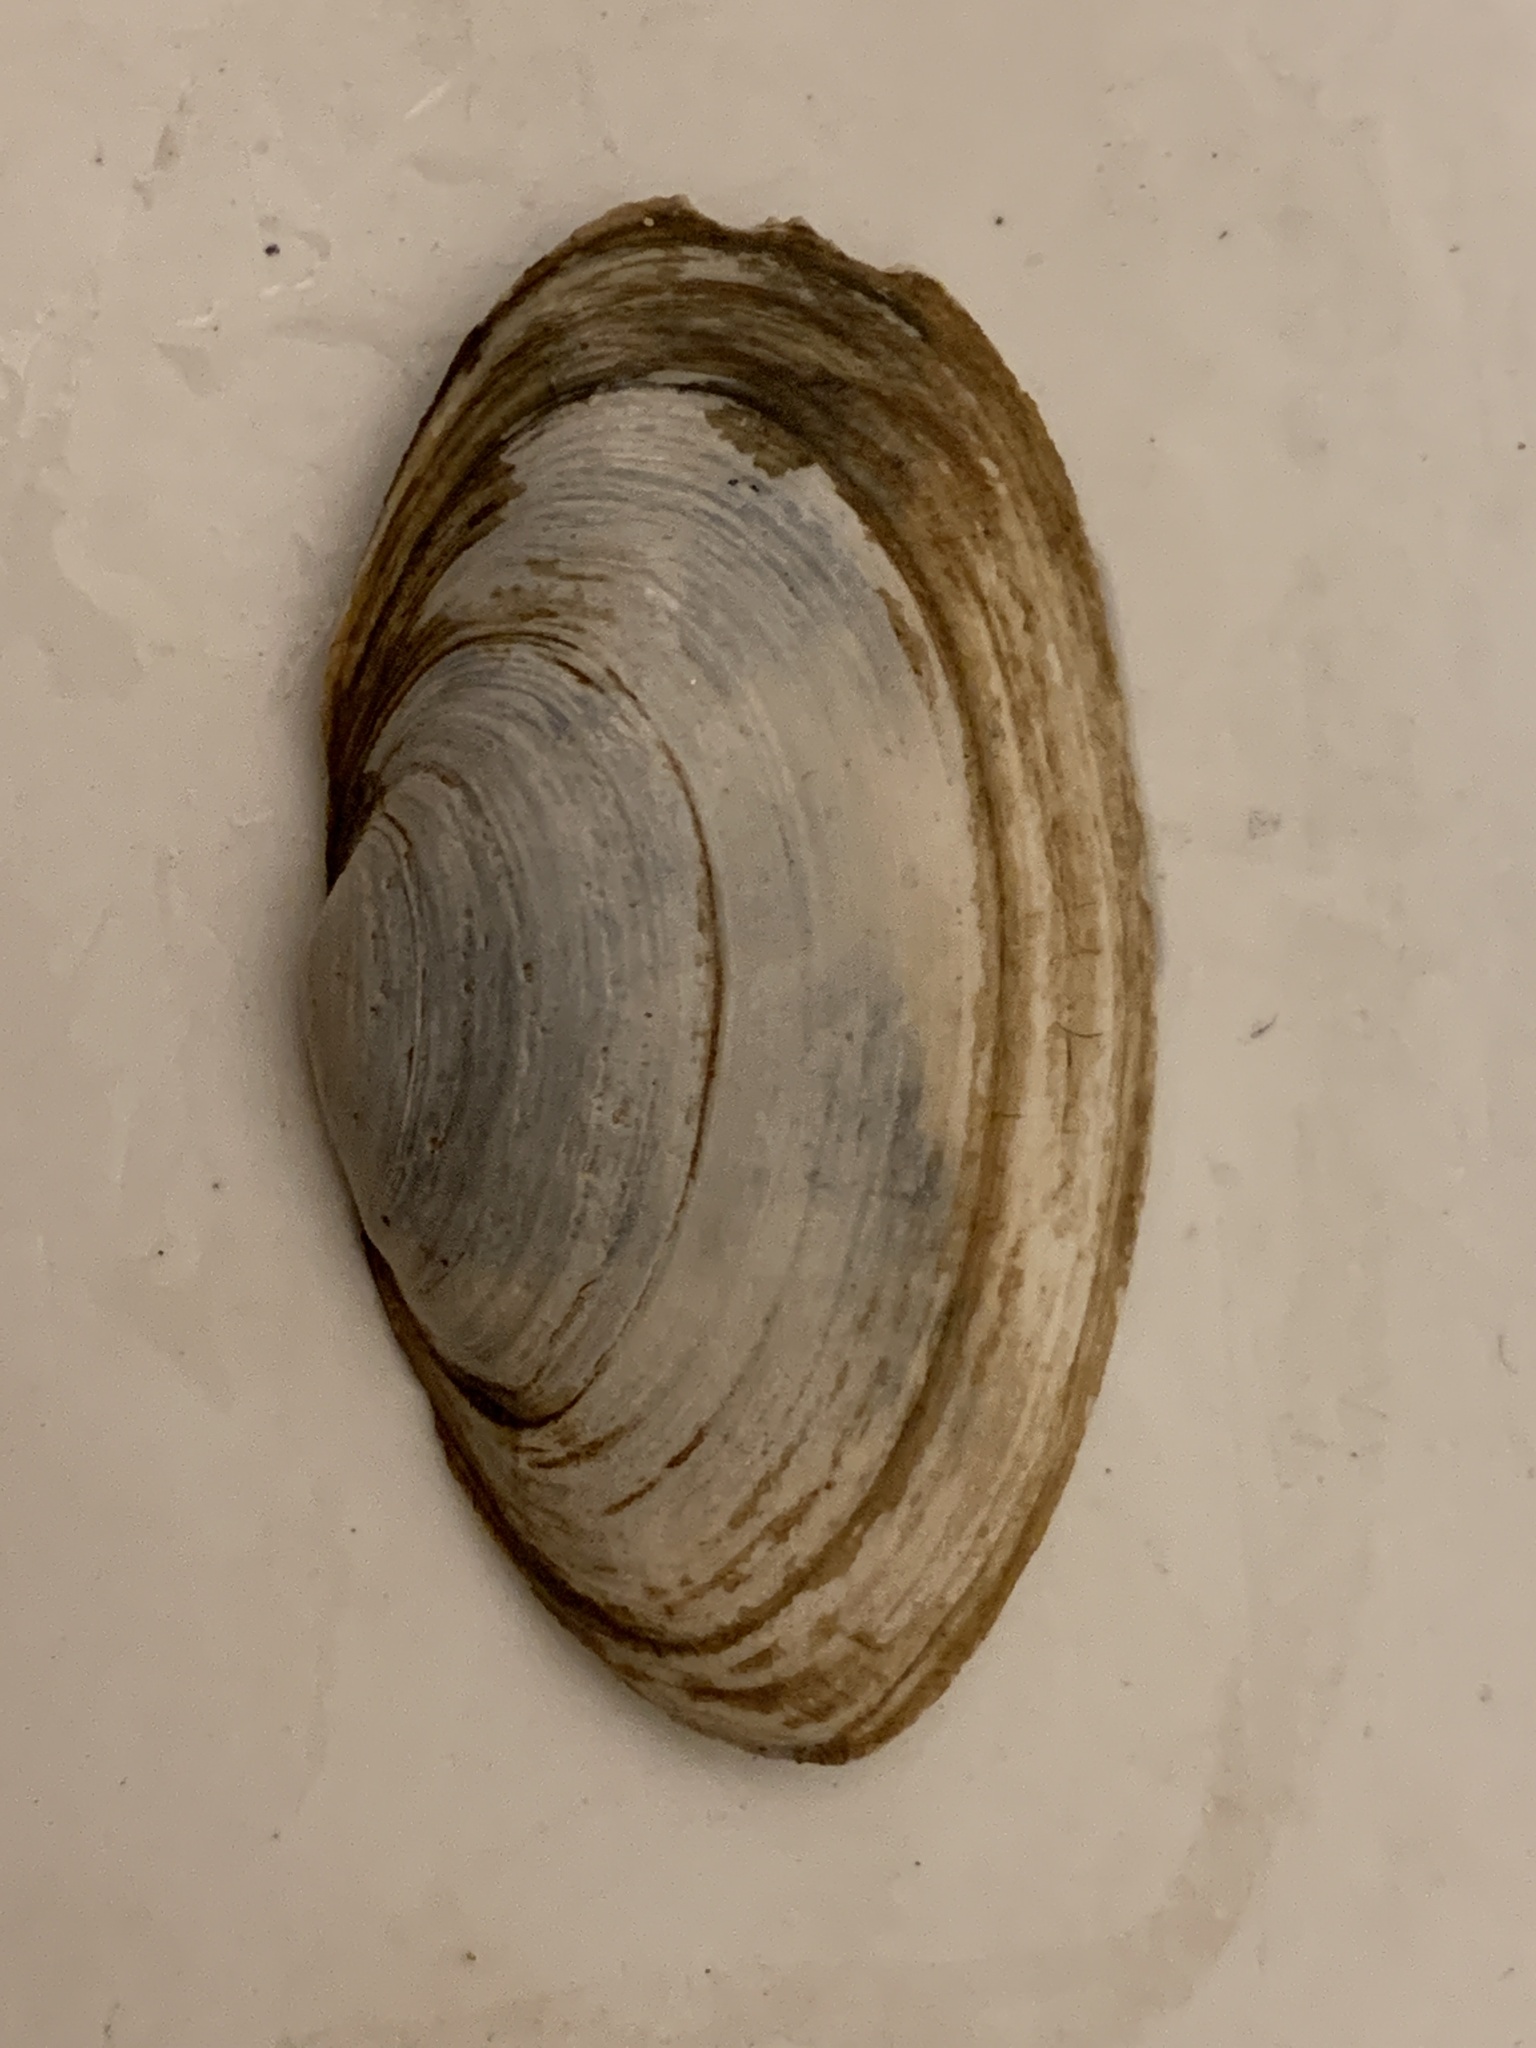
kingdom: Animalia
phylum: Mollusca
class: Bivalvia
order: Myida
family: Myidae
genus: Mya
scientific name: Mya arenaria
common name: Soft-shelled clam
